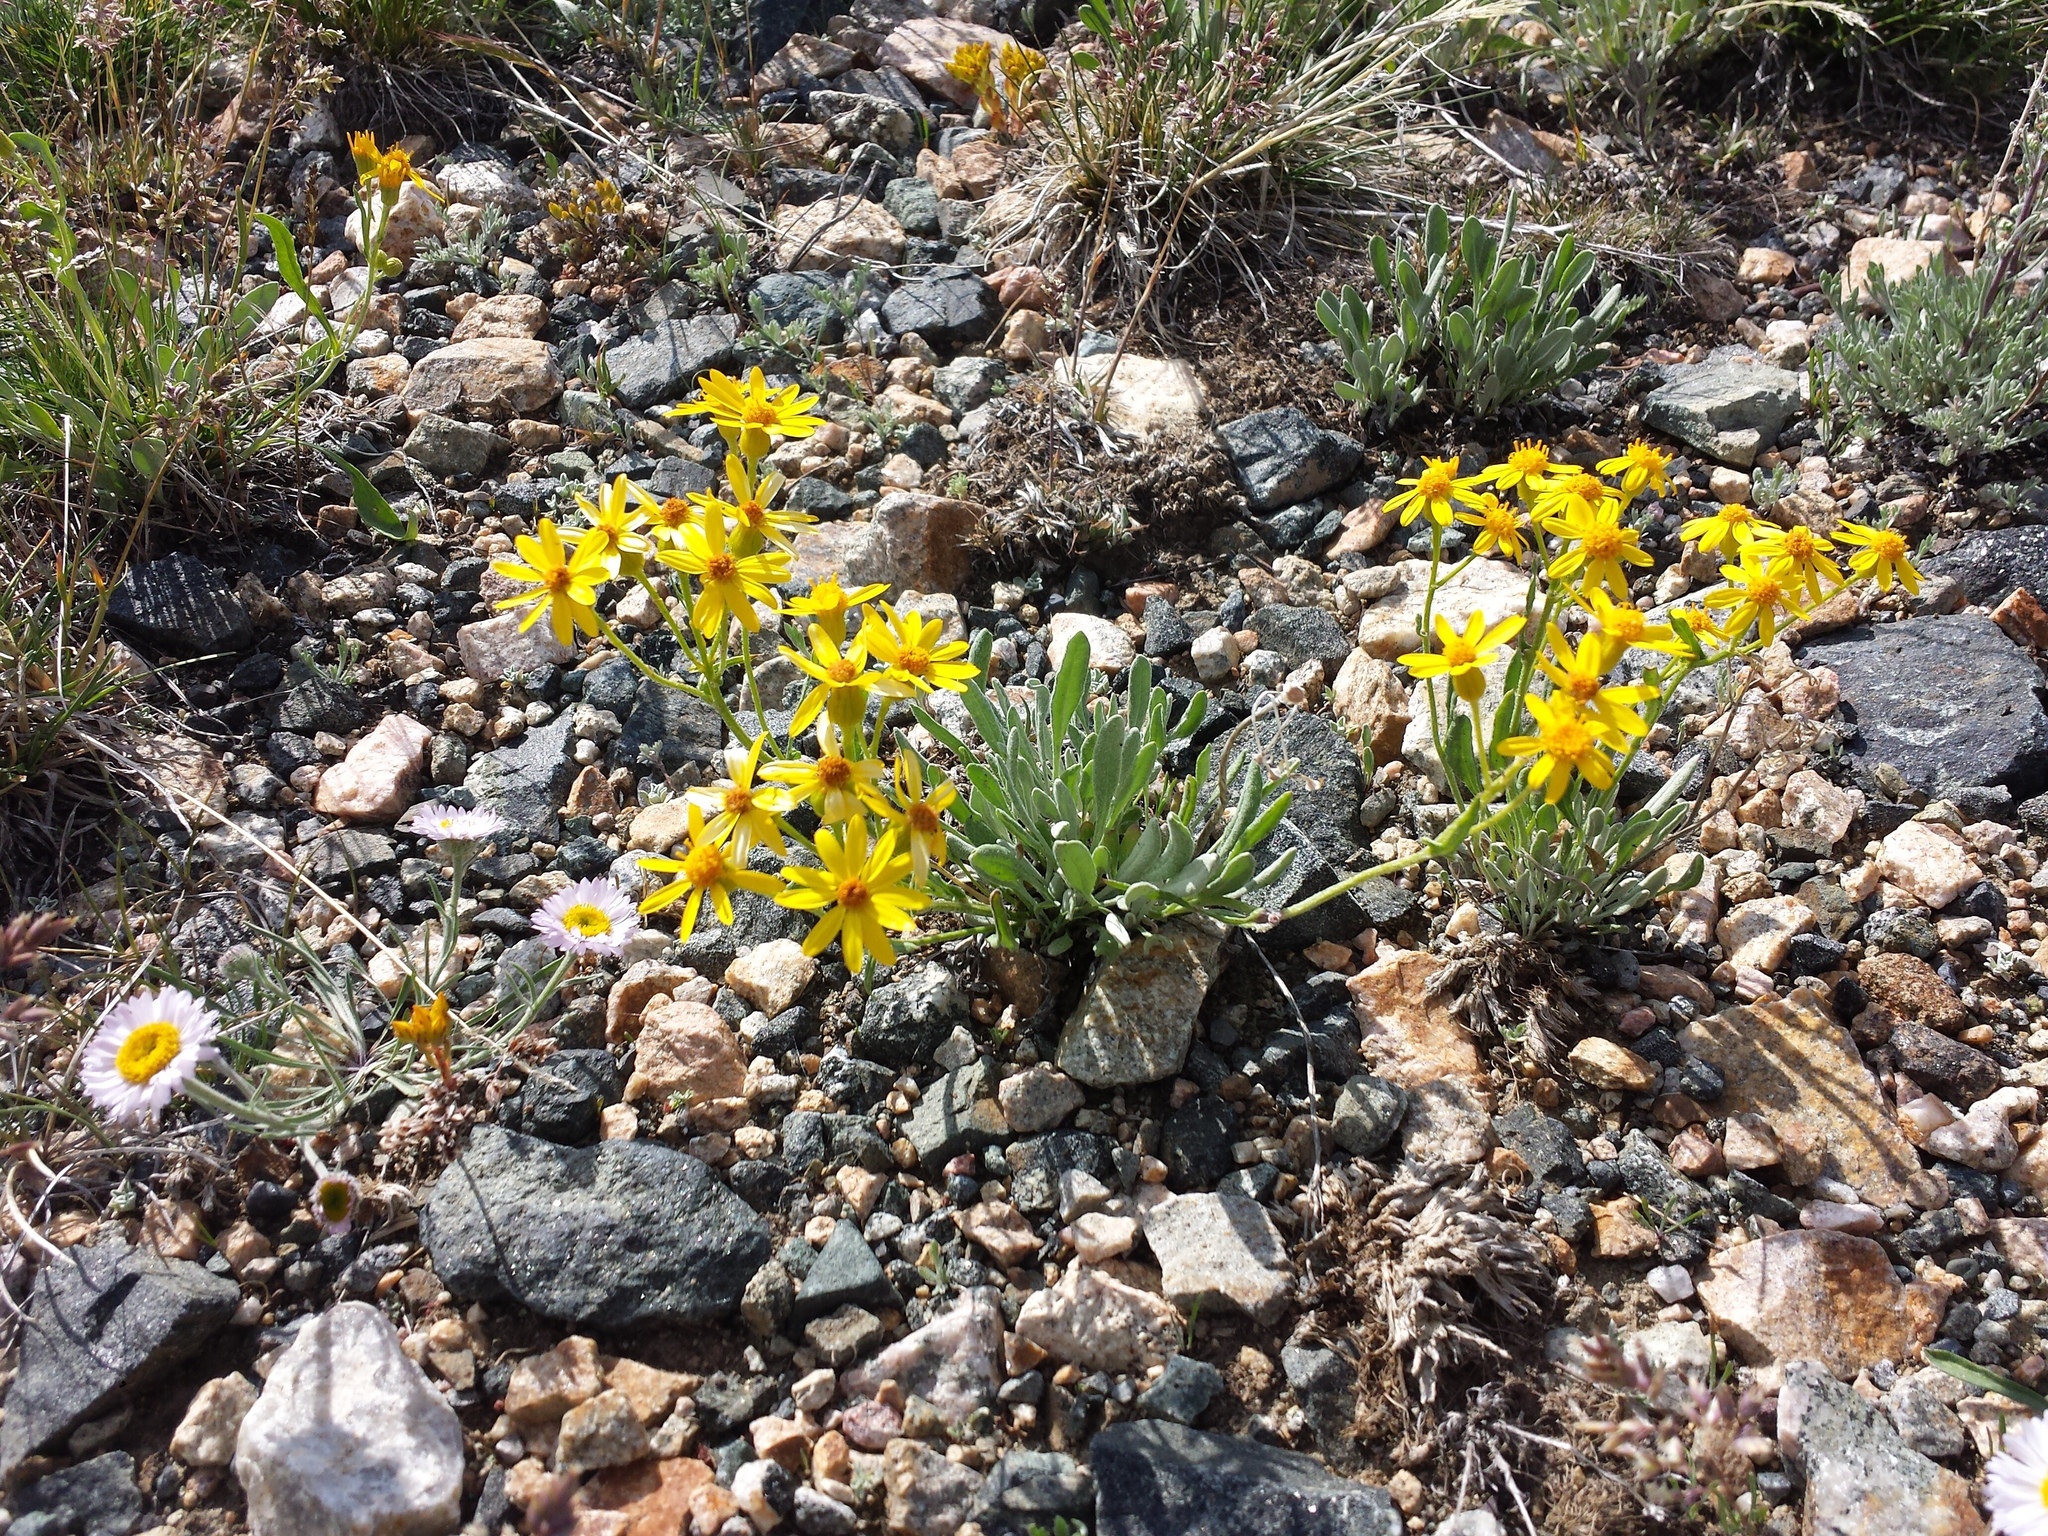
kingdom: Plantae
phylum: Tracheophyta
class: Magnoliopsida
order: Asterales
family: Asteraceae
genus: Packera
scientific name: Packera cana
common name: Woolly groundsel
